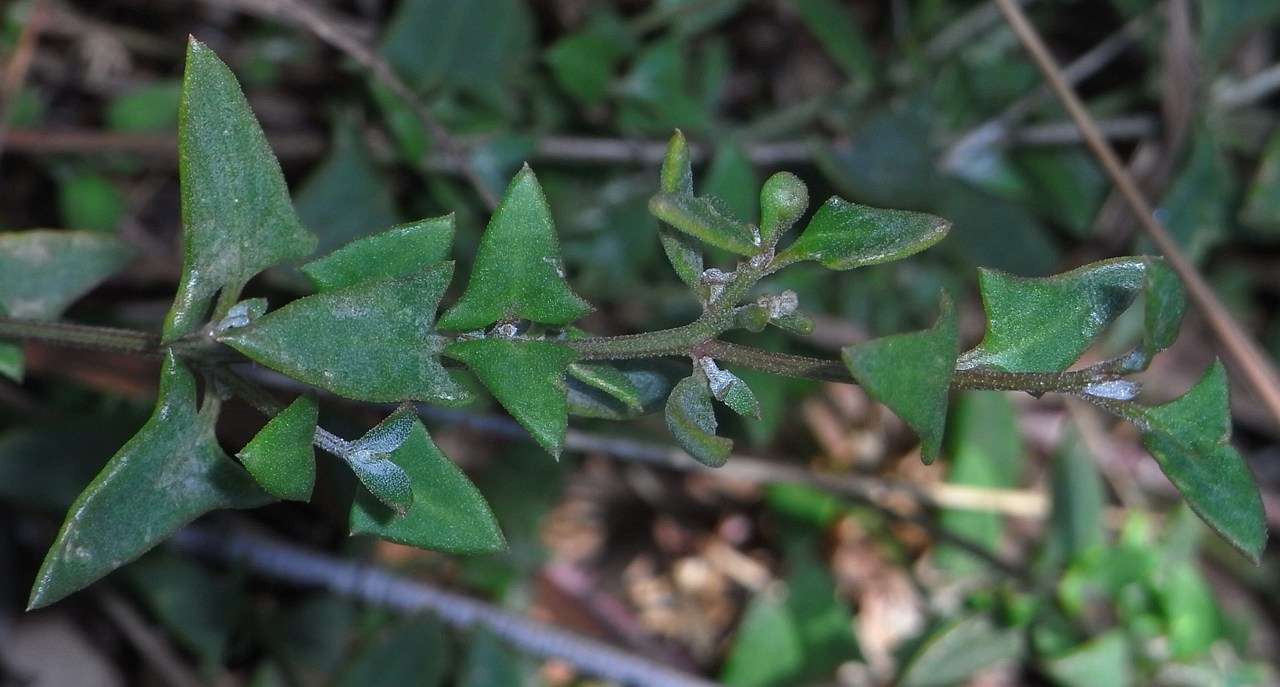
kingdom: Plantae
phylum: Tracheophyta
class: Magnoliopsida
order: Caryophyllales
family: Amaranthaceae
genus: Chenopodium
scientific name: Chenopodium nutans
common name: Climbing-saltbush
